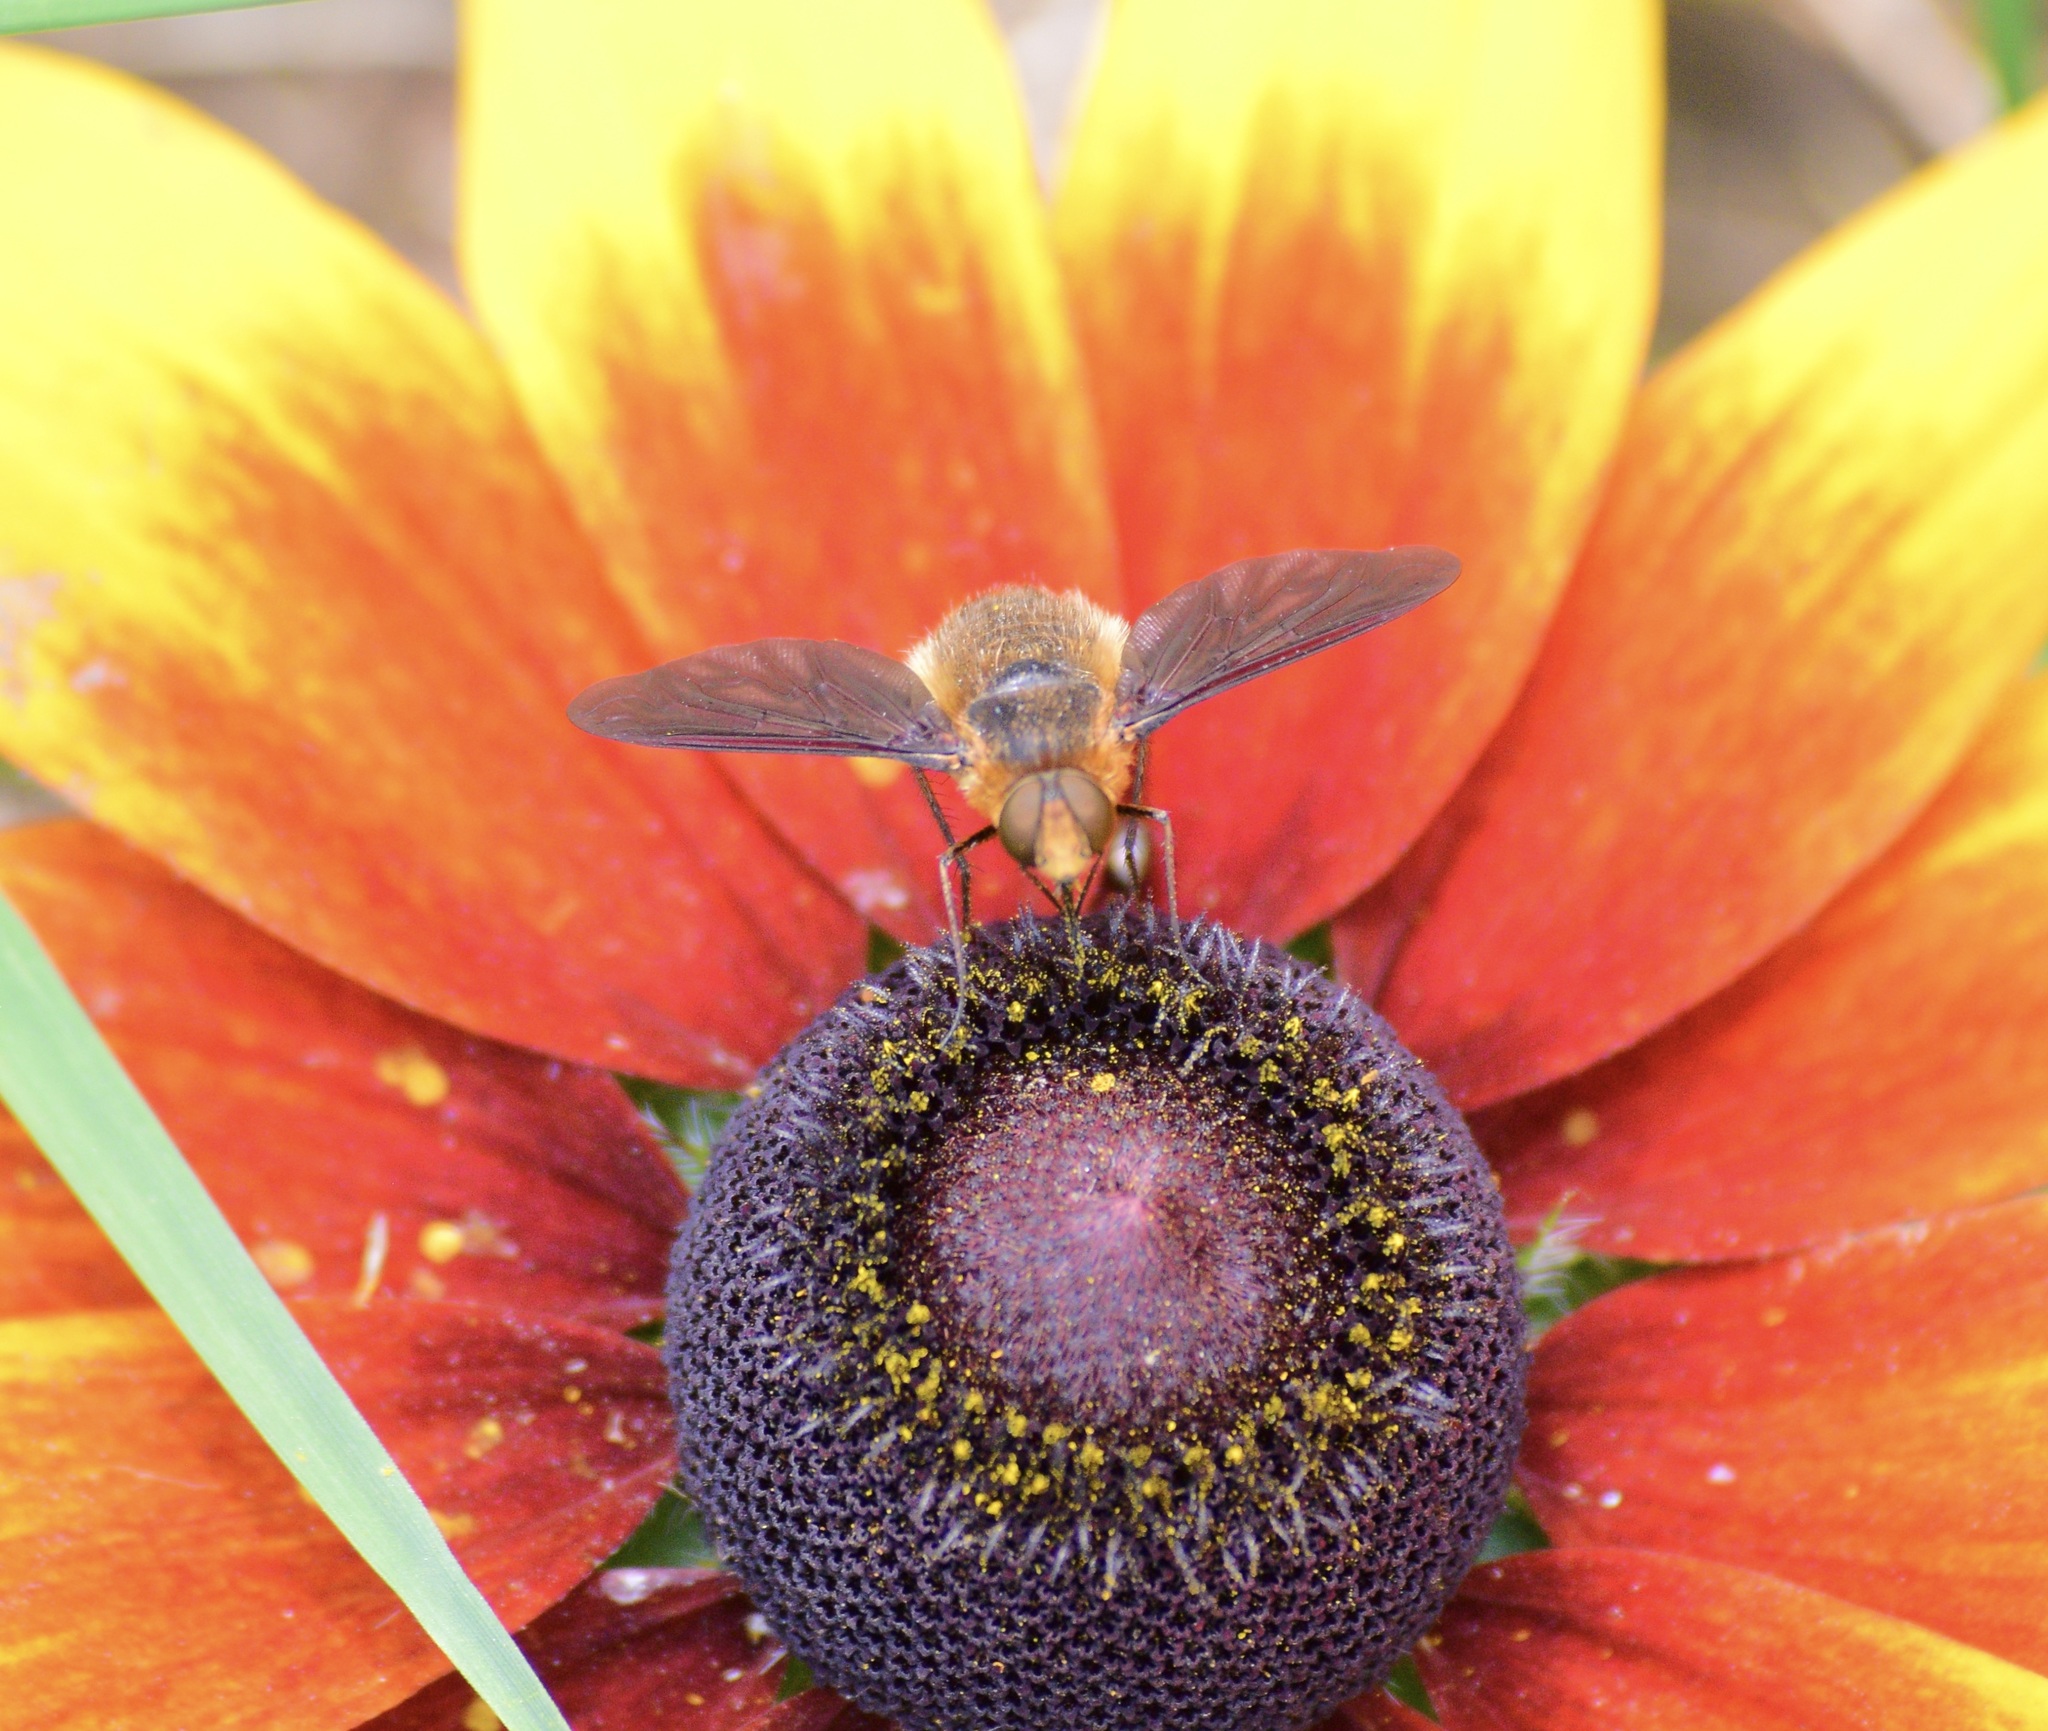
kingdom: Animalia
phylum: Arthropoda
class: Insecta
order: Diptera
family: Bombyliidae
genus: Poecilanthrax
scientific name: Poecilanthrax tegminipennis
